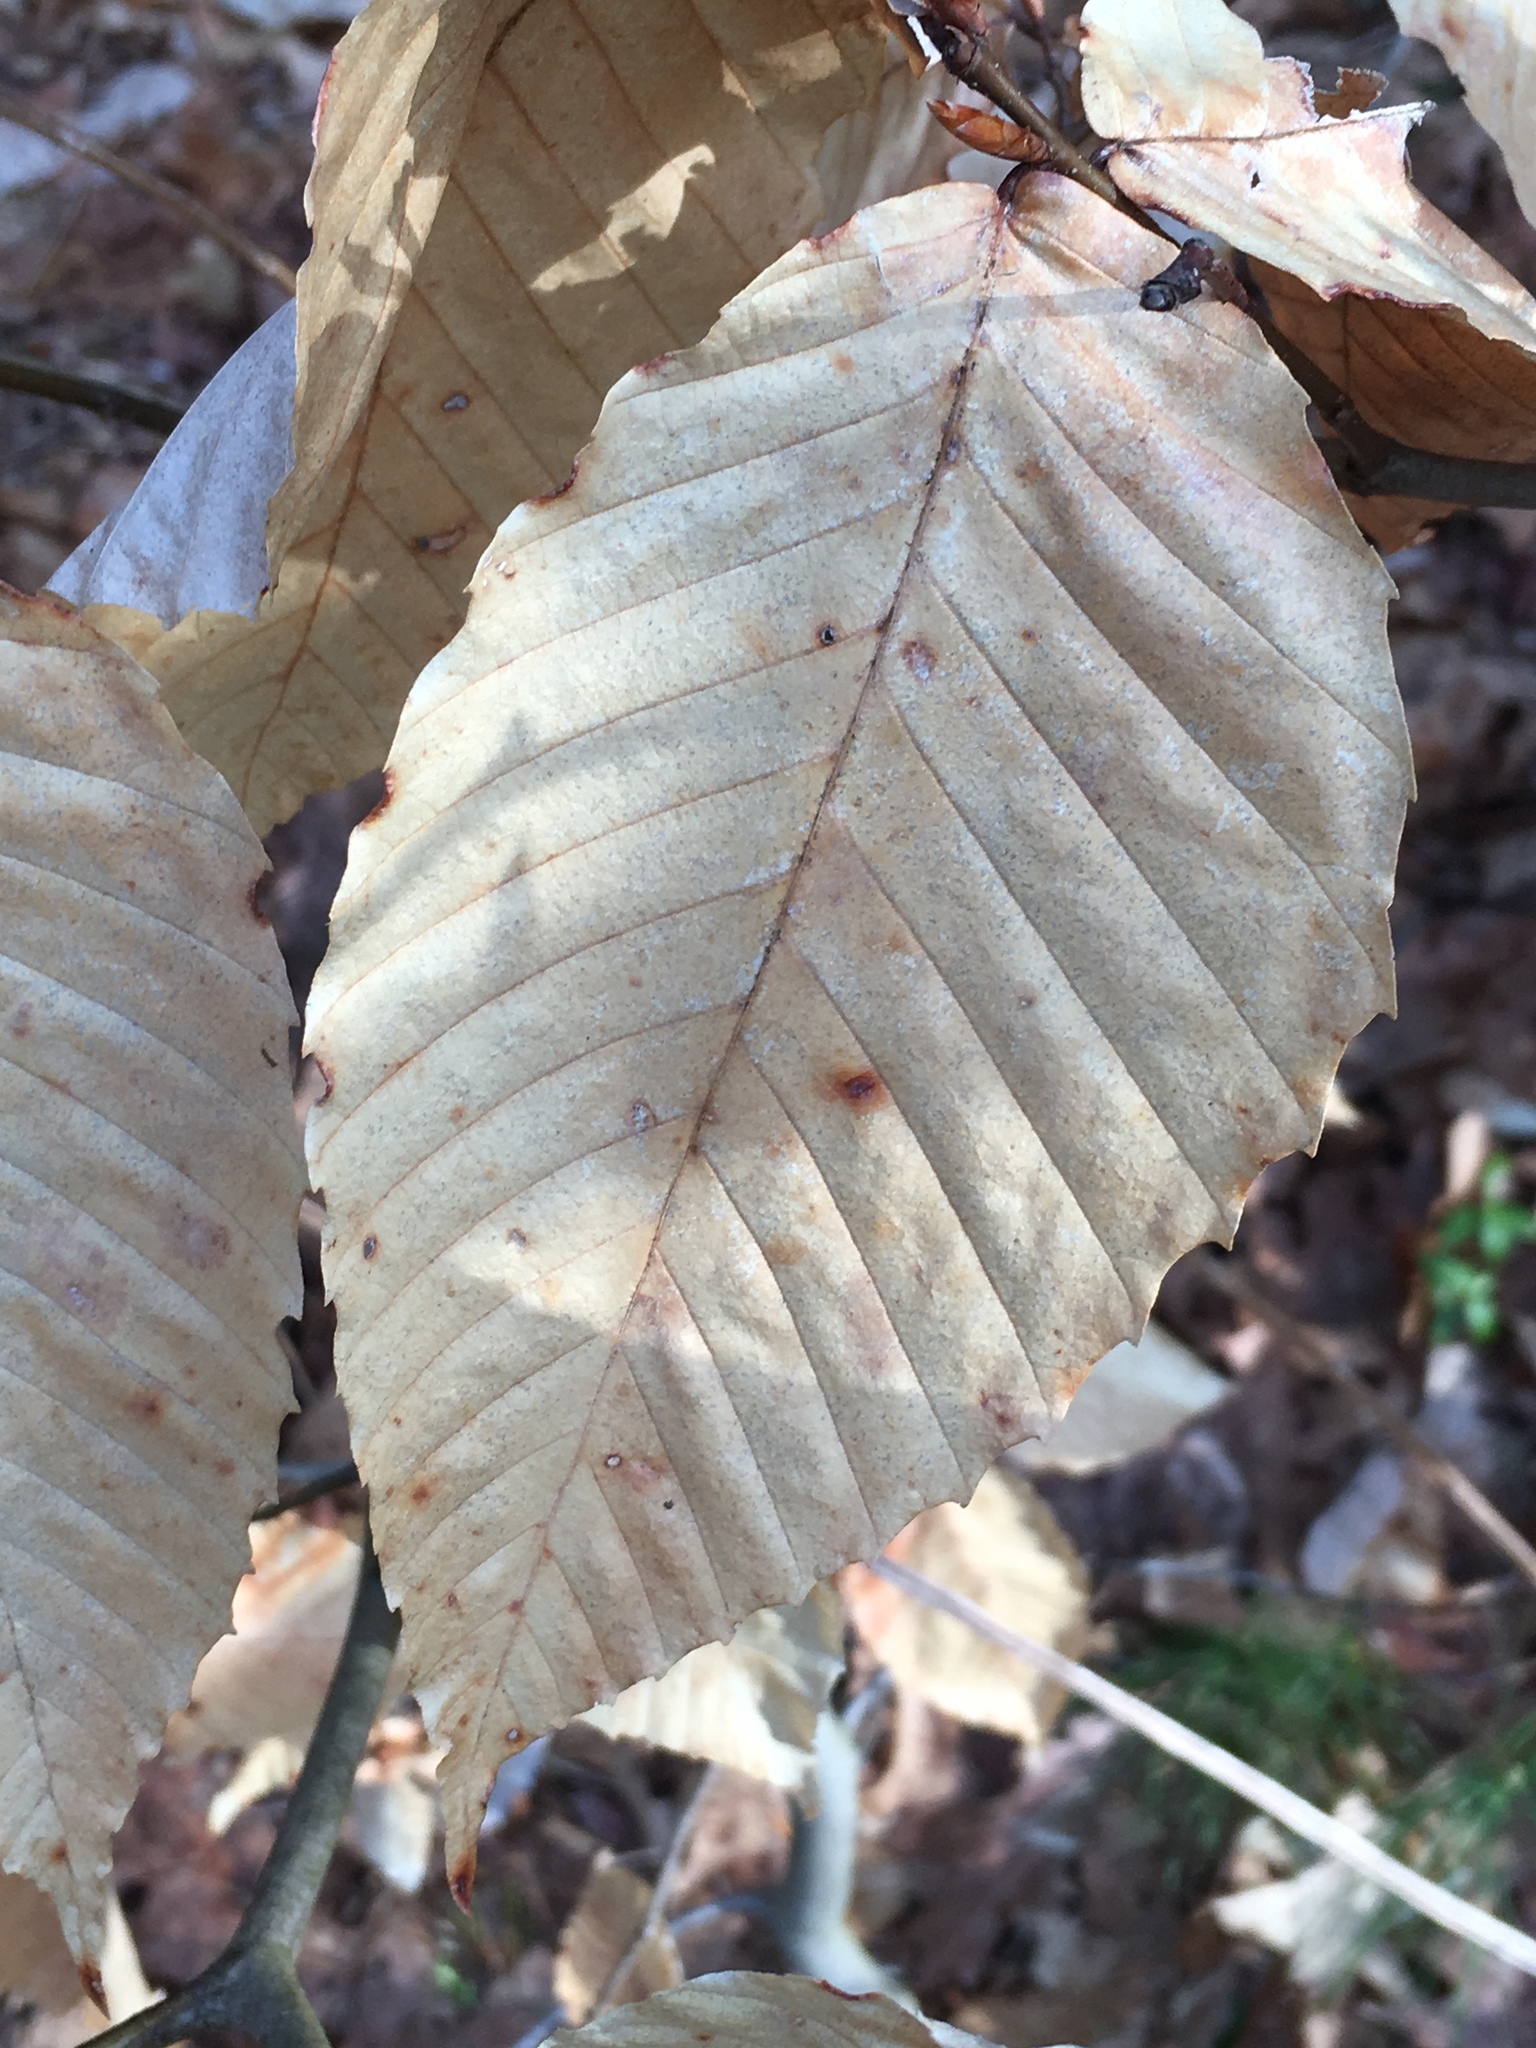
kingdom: Plantae
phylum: Tracheophyta
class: Magnoliopsida
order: Fagales
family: Fagaceae
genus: Fagus
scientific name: Fagus grandifolia
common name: American beech
